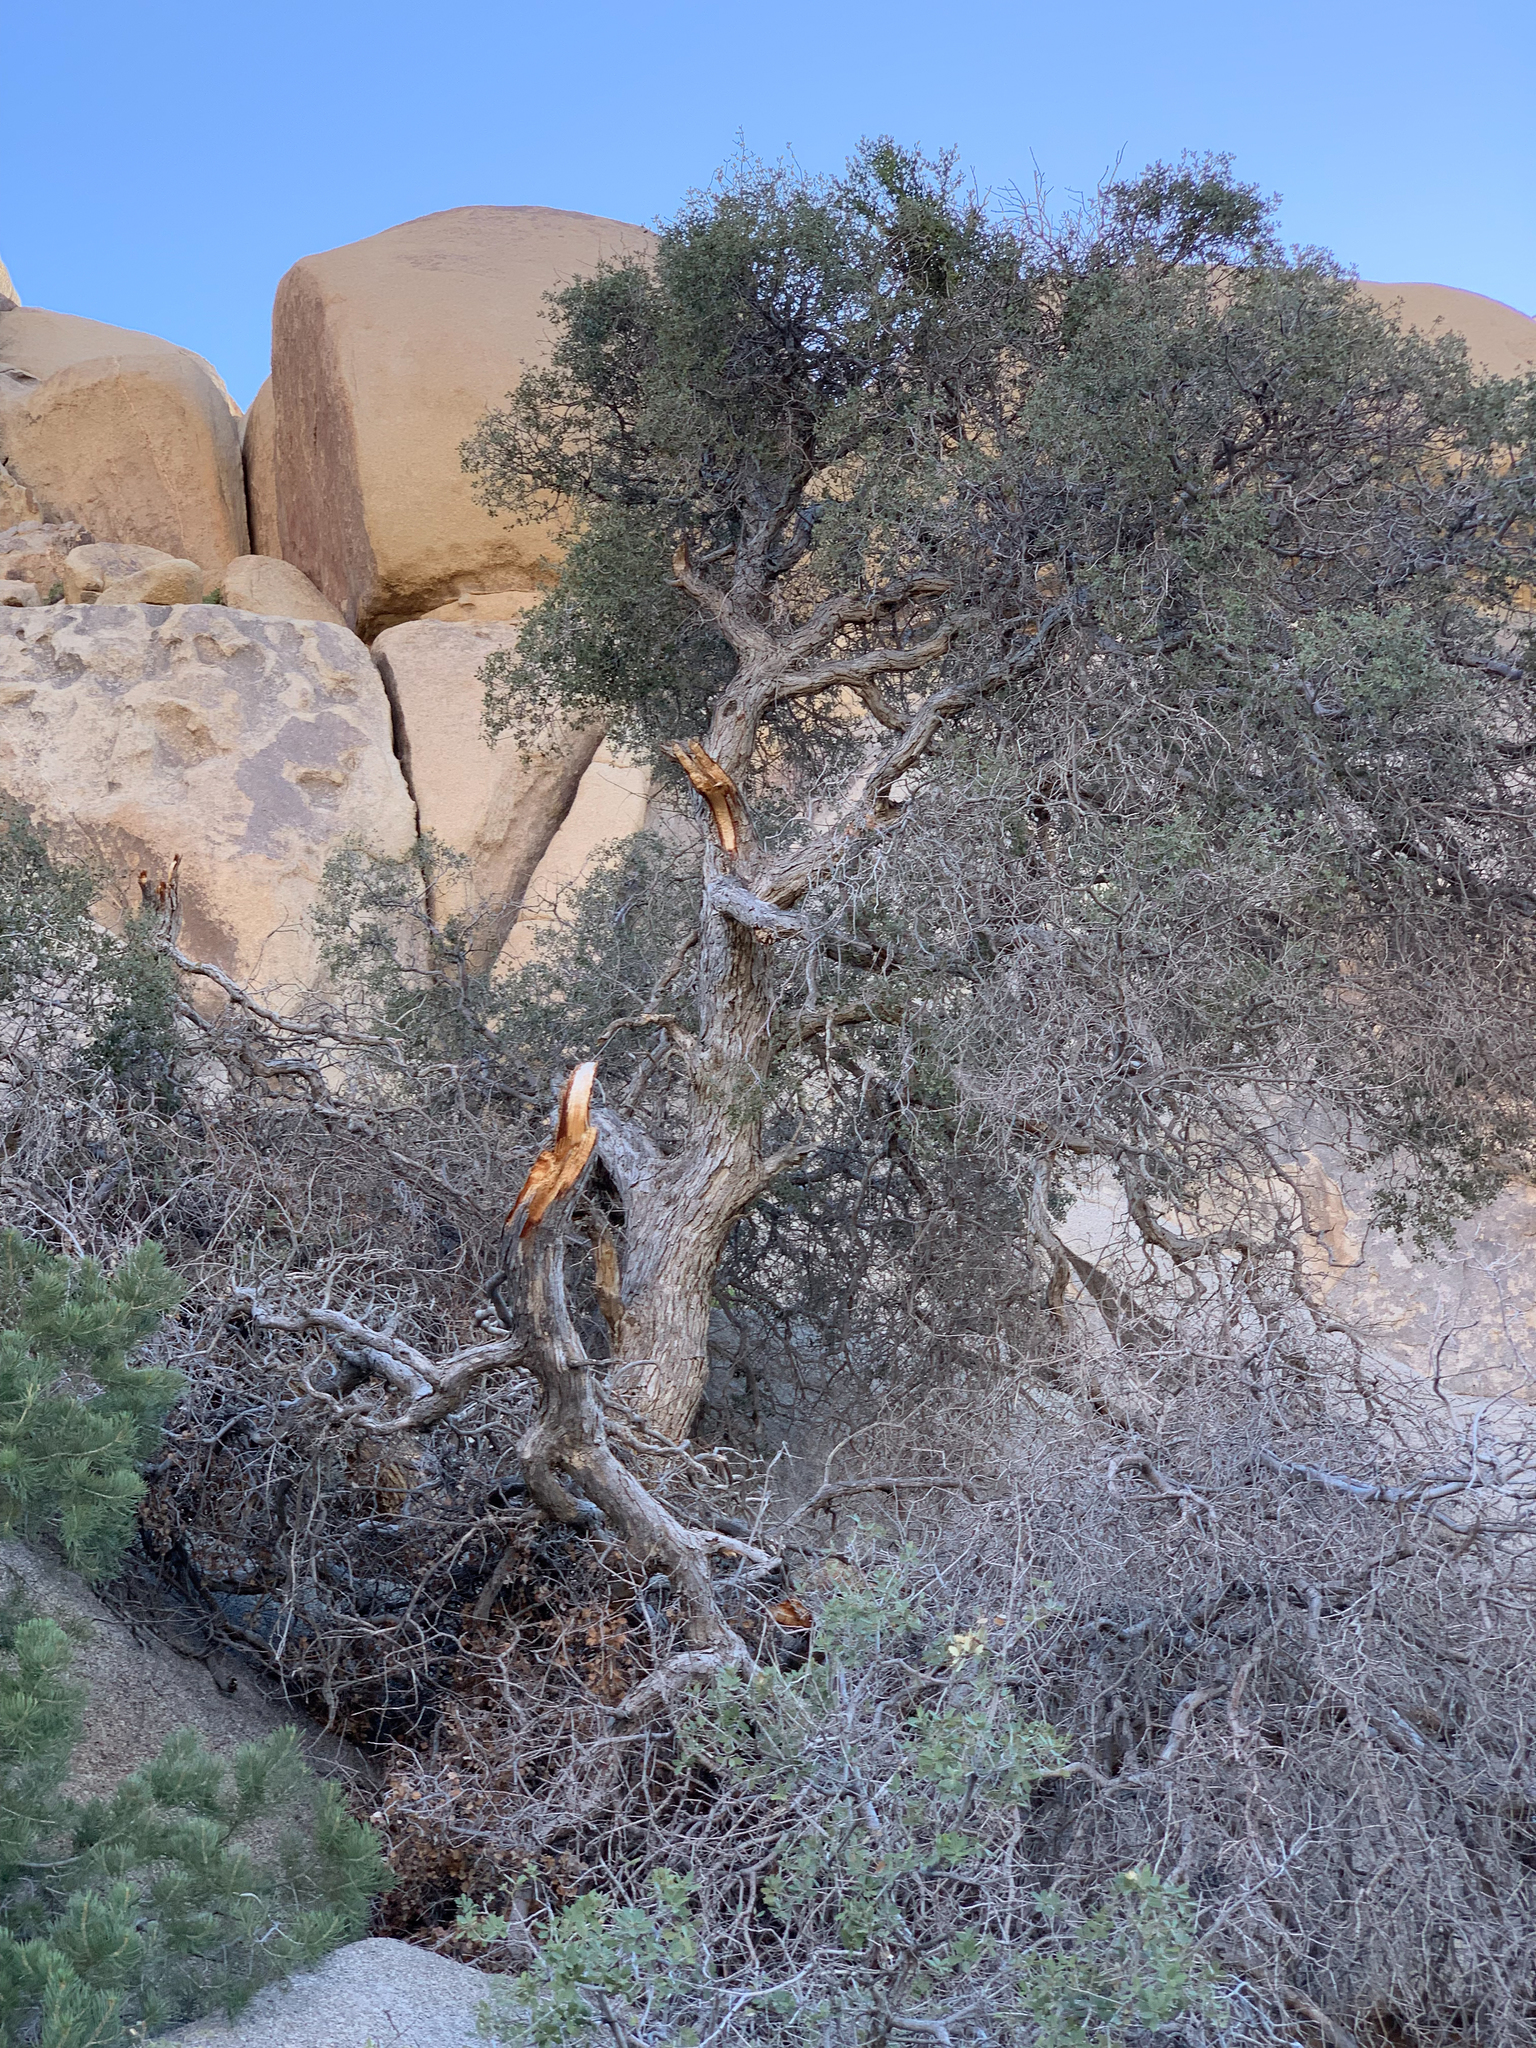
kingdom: Plantae
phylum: Tracheophyta
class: Magnoliopsida
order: Fagales
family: Fagaceae
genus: Quercus
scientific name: Quercus cornelius-mulleri
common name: Muller oak
